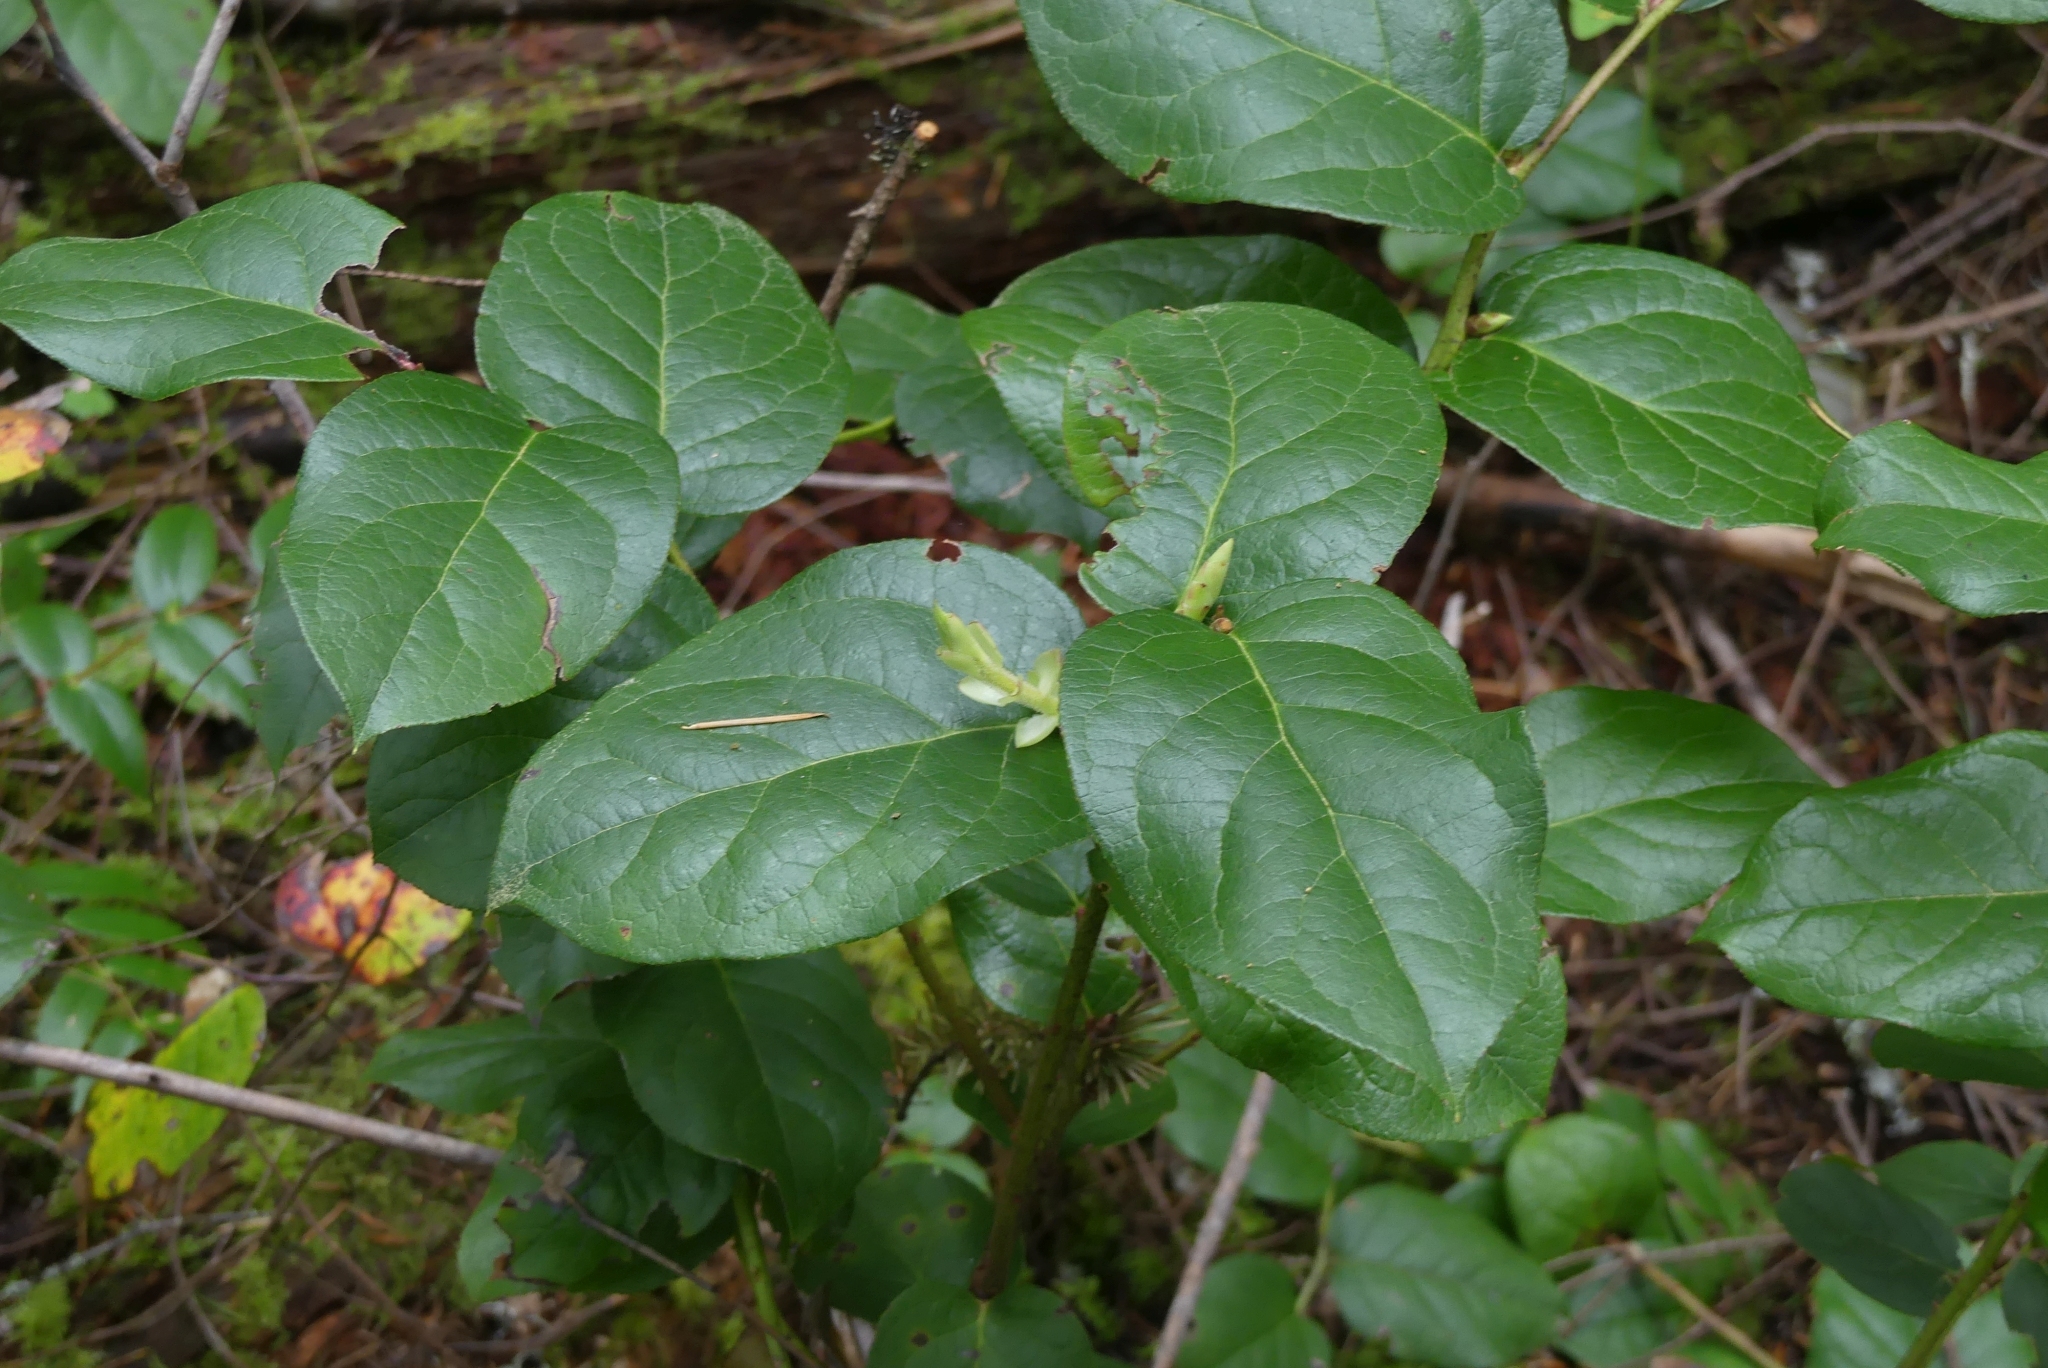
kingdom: Plantae
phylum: Tracheophyta
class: Magnoliopsida
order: Ericales
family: Ericaceae
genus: Gaultheria
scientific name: Gaultheria shallon
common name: Shallon
